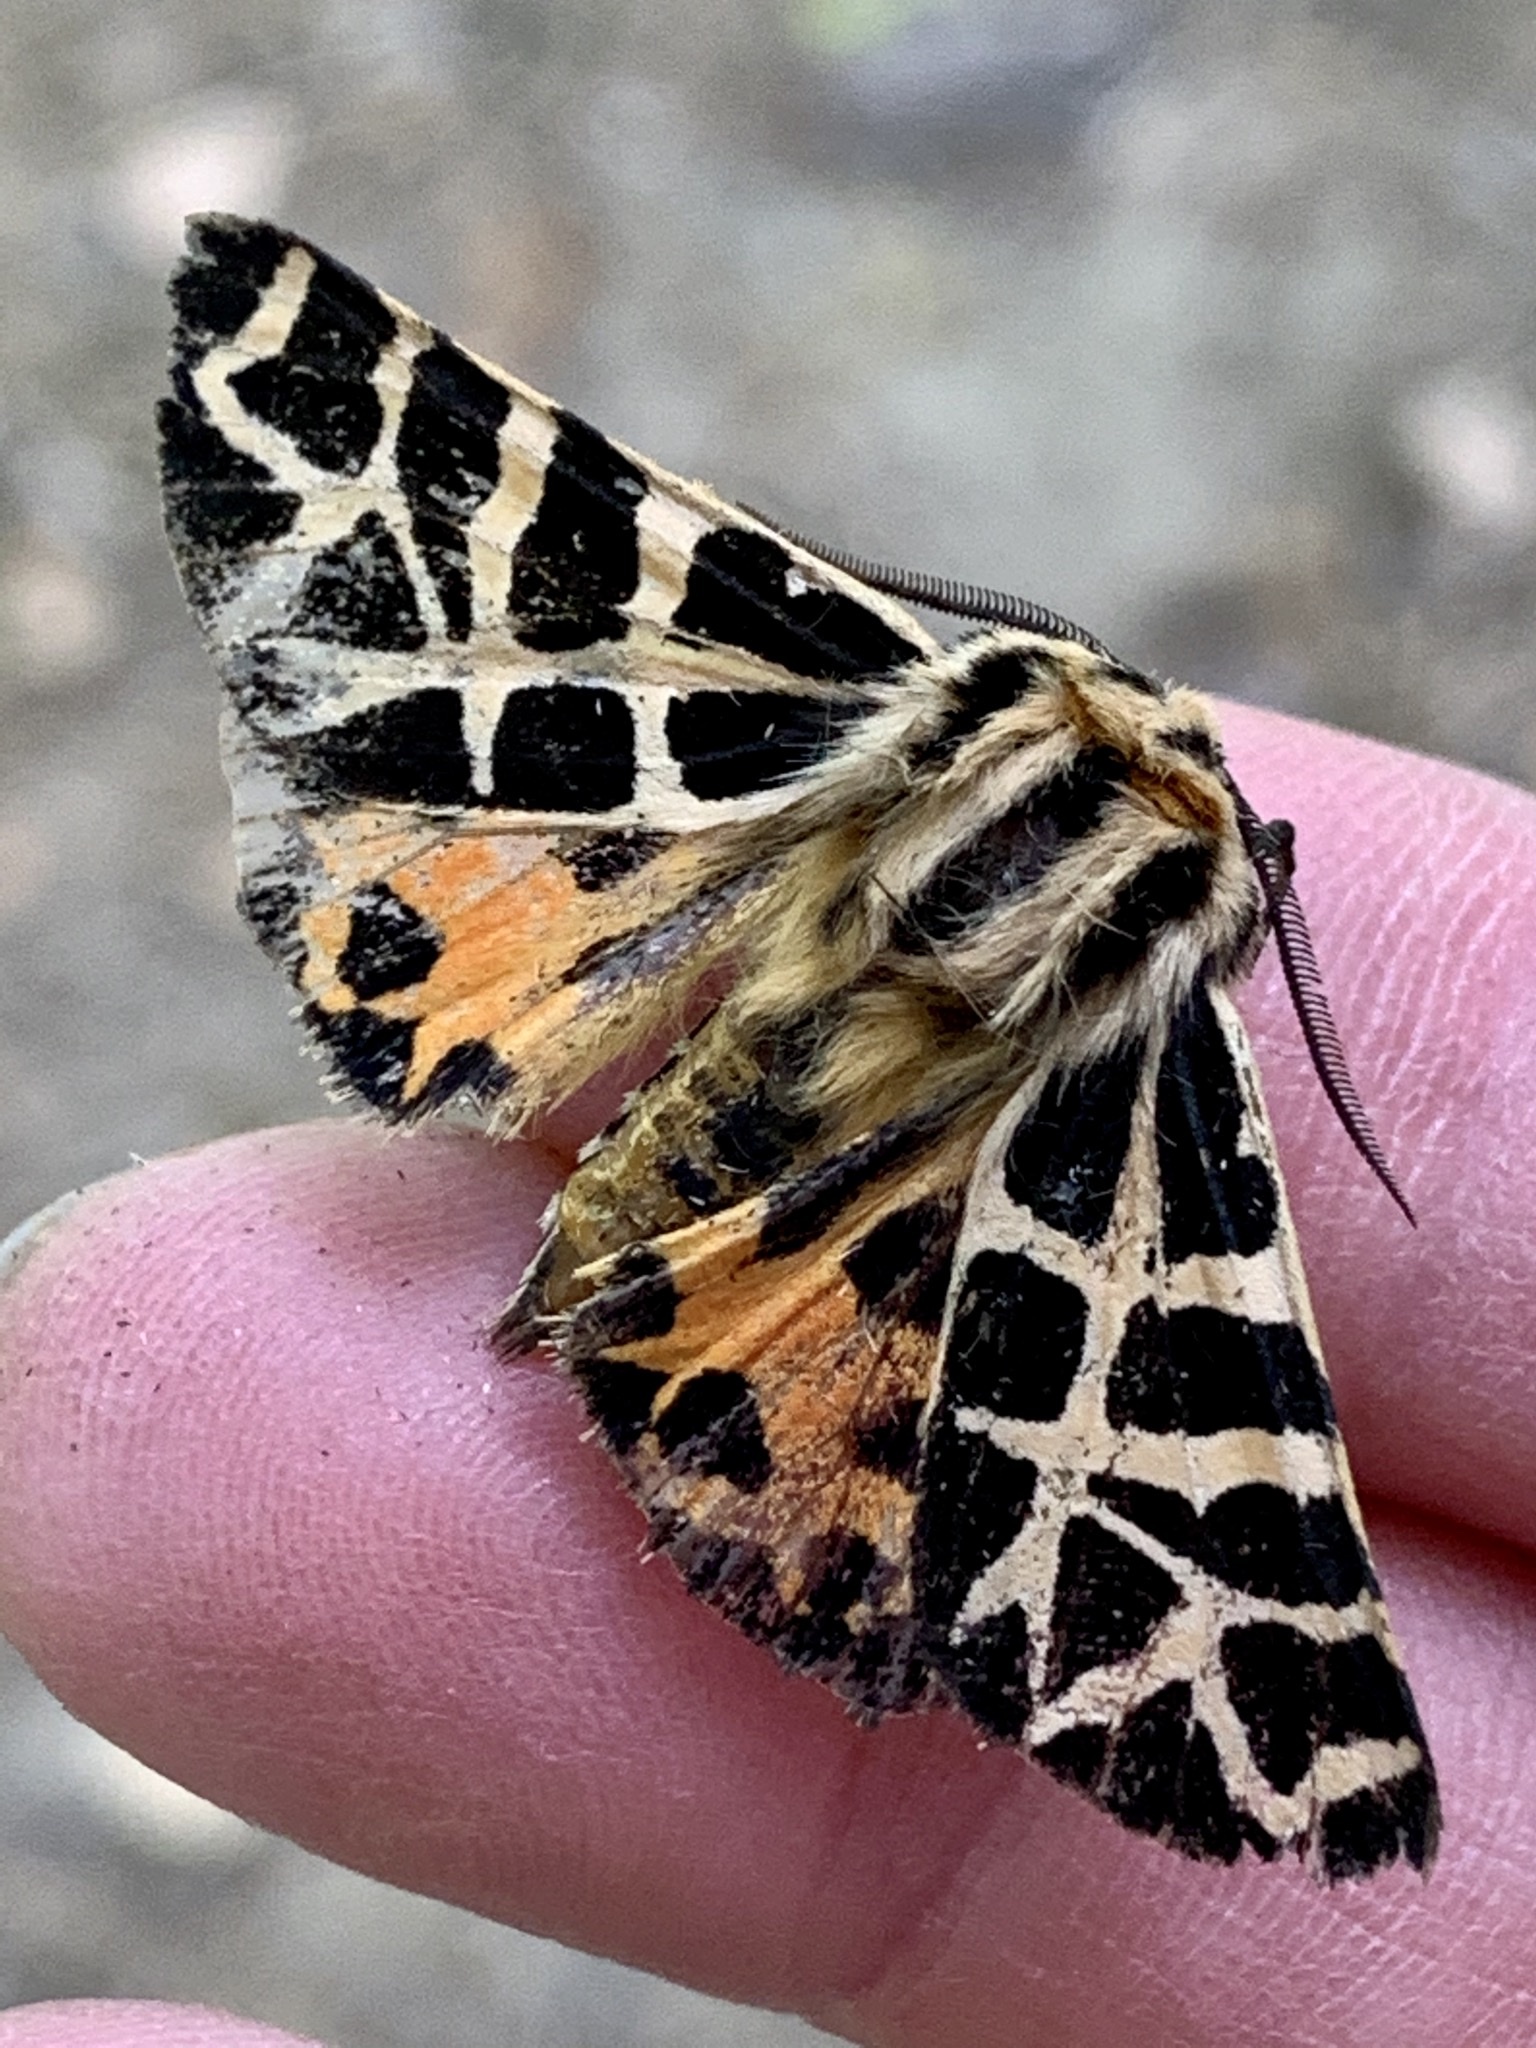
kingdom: Animalia
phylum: Arthropoda
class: Insecta
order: Lepidoptera
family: Erebidae
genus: Apantesis
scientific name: Apantesis
